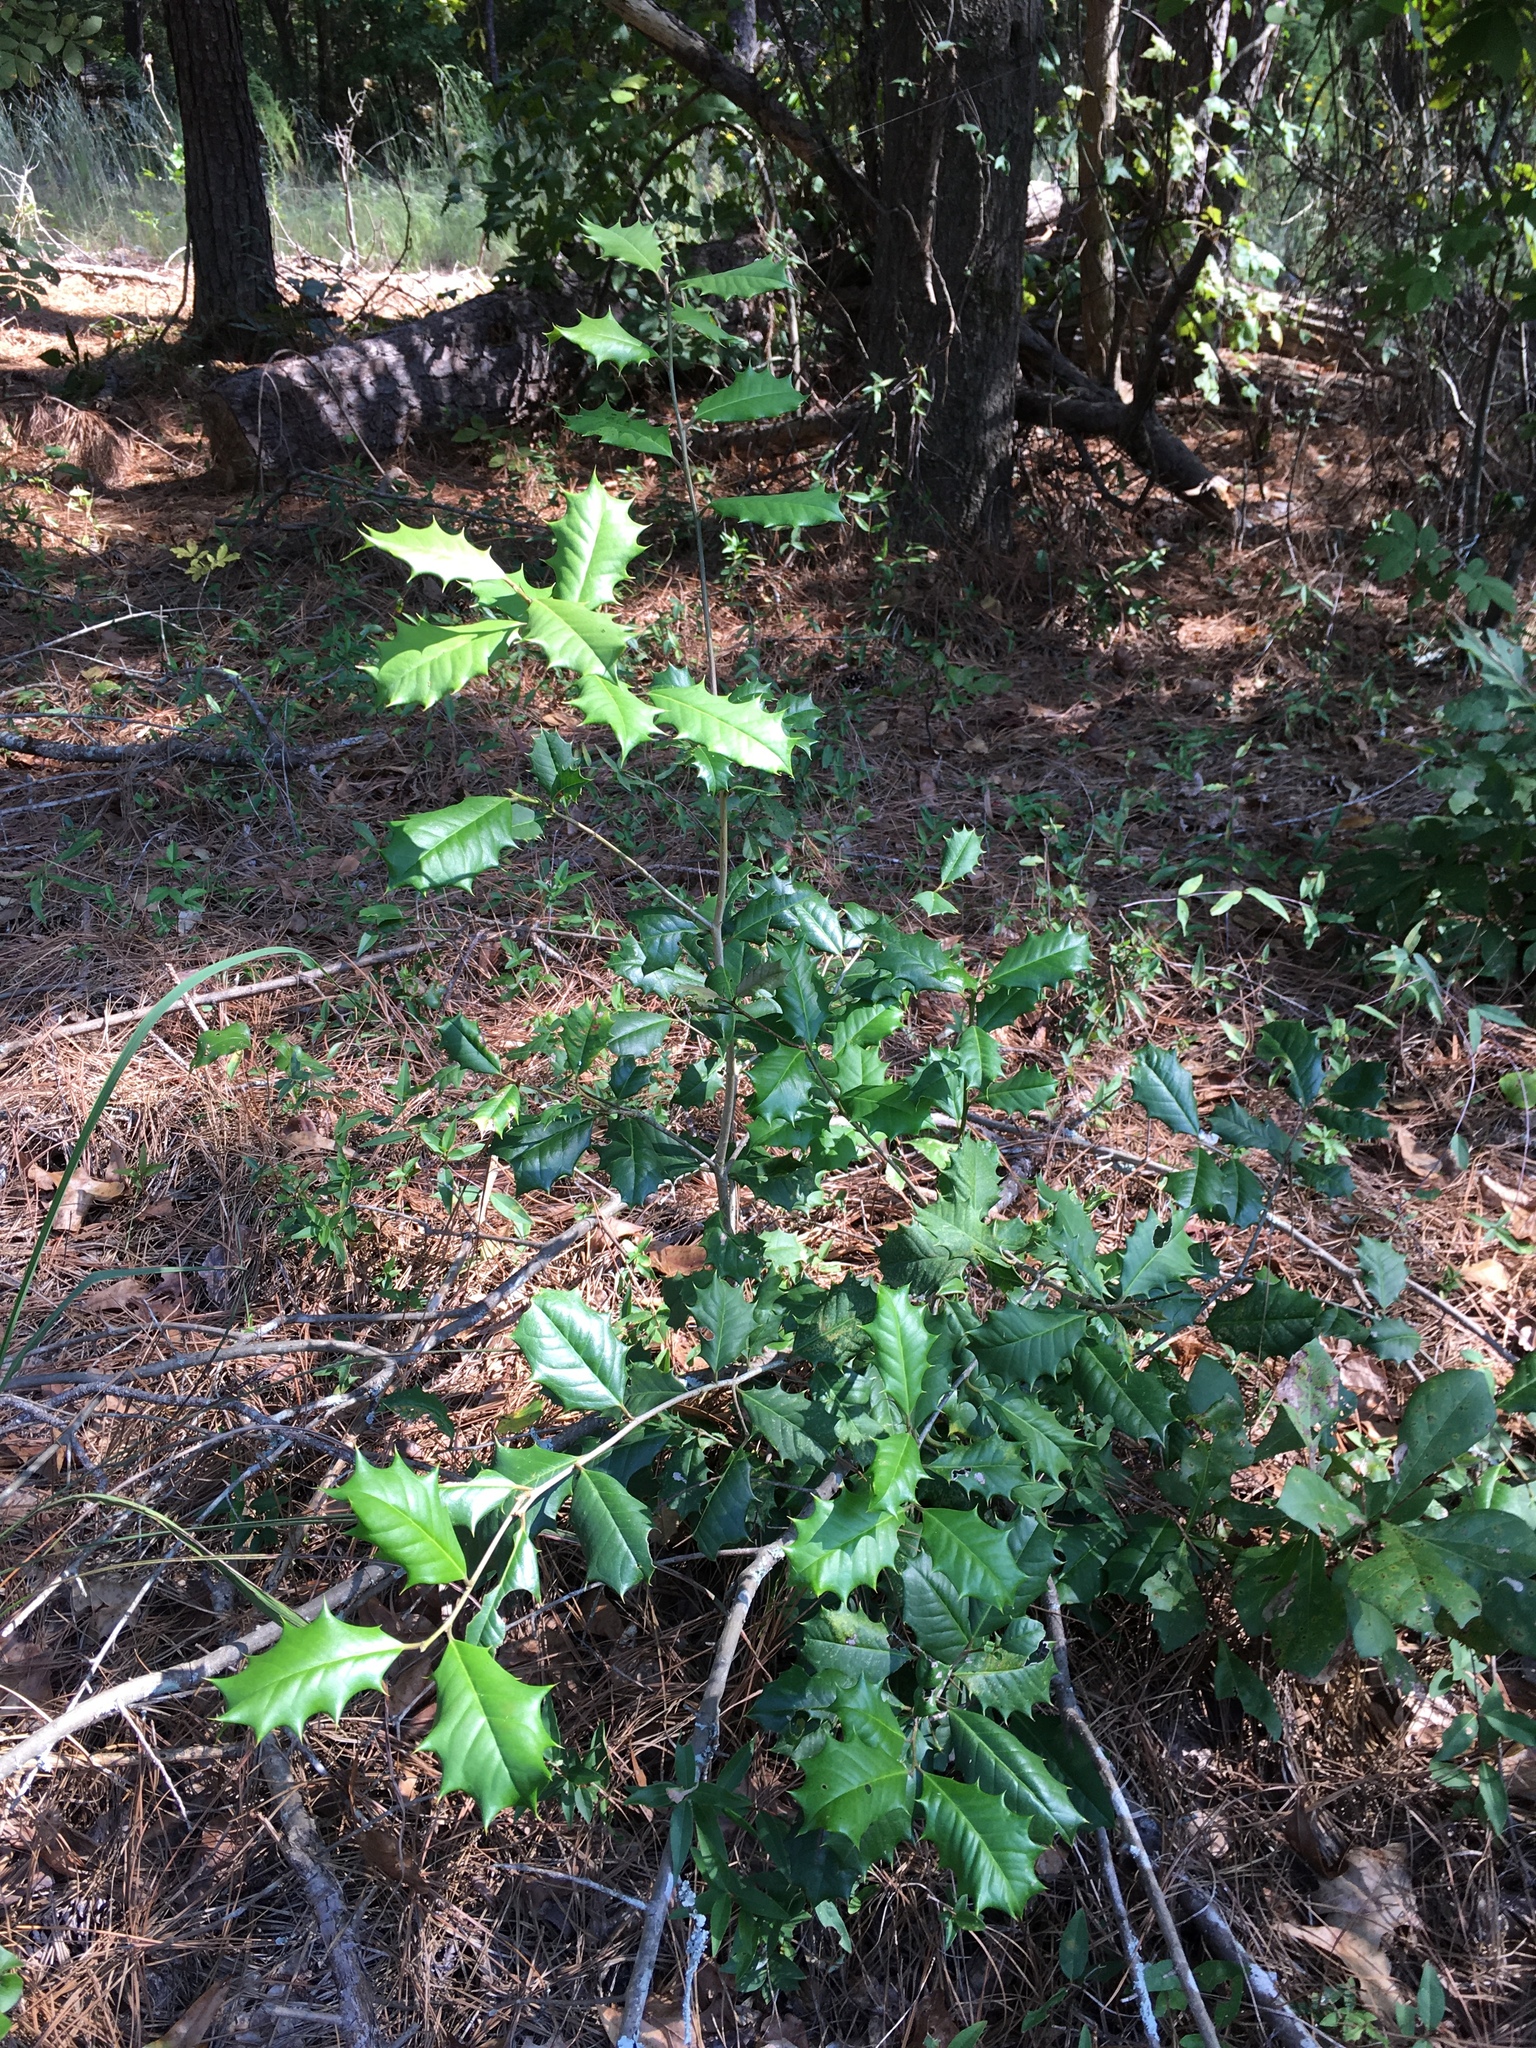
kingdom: Plantae
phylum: Tracheophyta
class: Magnoliopsida
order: Aquifoliales
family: Aquifoliaceae
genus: Ilex
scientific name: Ilex opaca
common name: American holly
